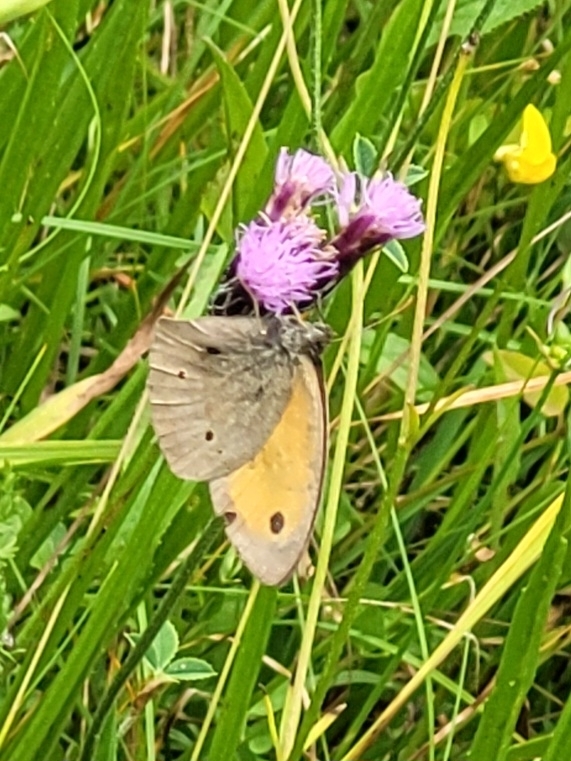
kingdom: Animalia
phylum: Arthropoda
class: Insecta
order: Lepidoptera
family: Nymphalidae
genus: Maniola
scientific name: Maniola jurtina
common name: Meadow brown
